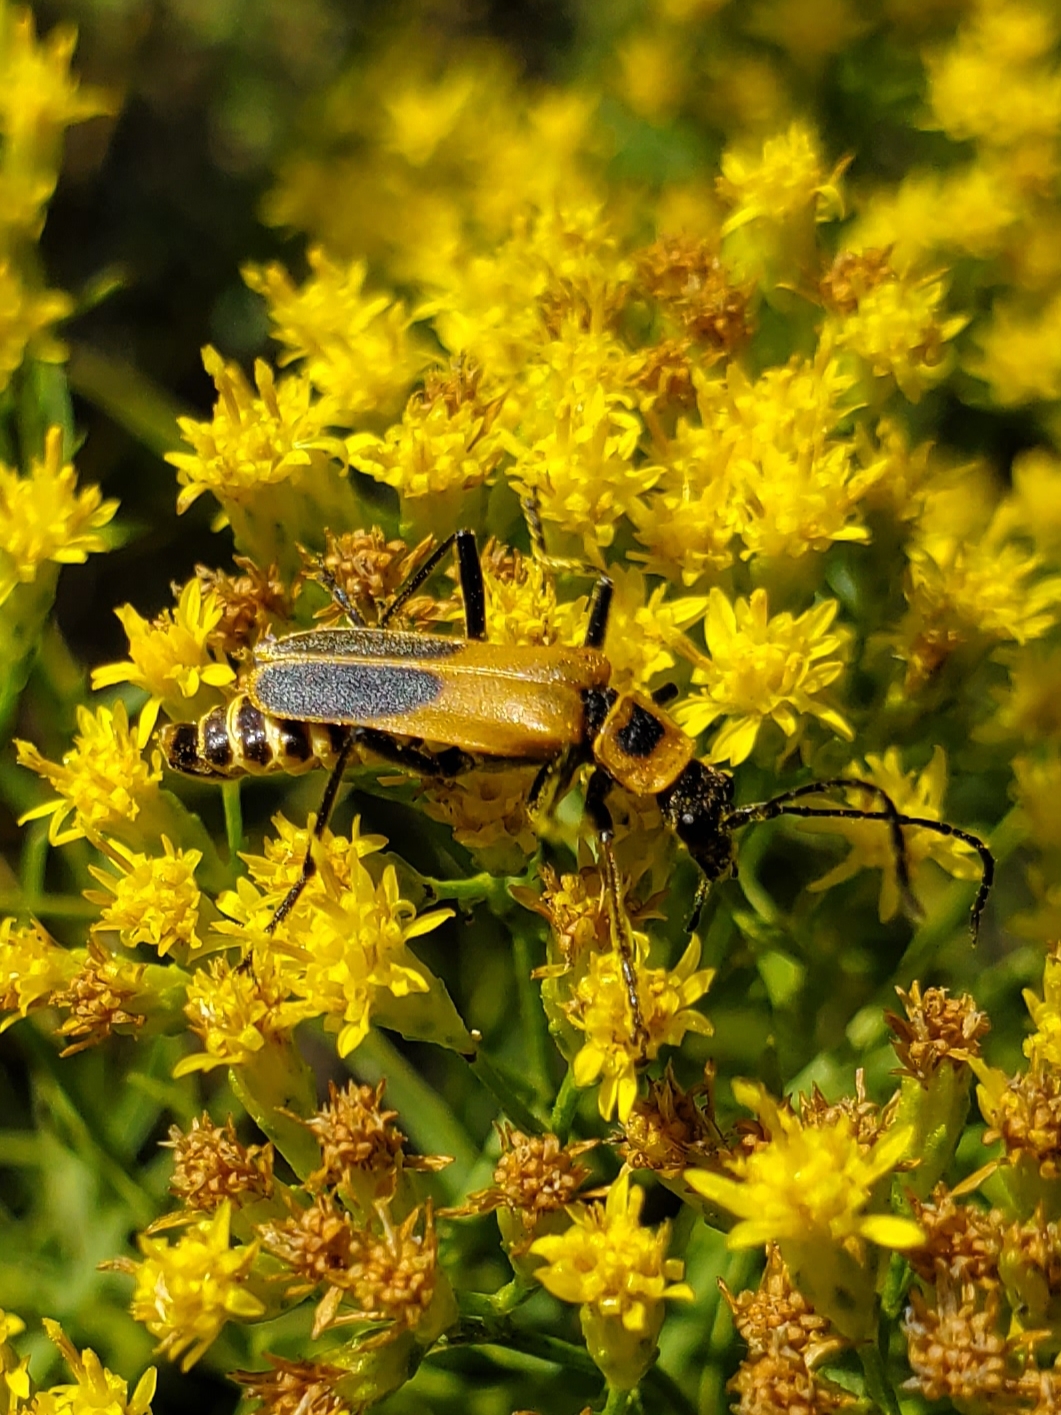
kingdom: Animalia
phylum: Arthropoda
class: Insecta
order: Coleoptera
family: Cantharidae
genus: Chauliognathus
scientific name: Chauliognathus pensylvanicus
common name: Goldenrod soldier beetle
